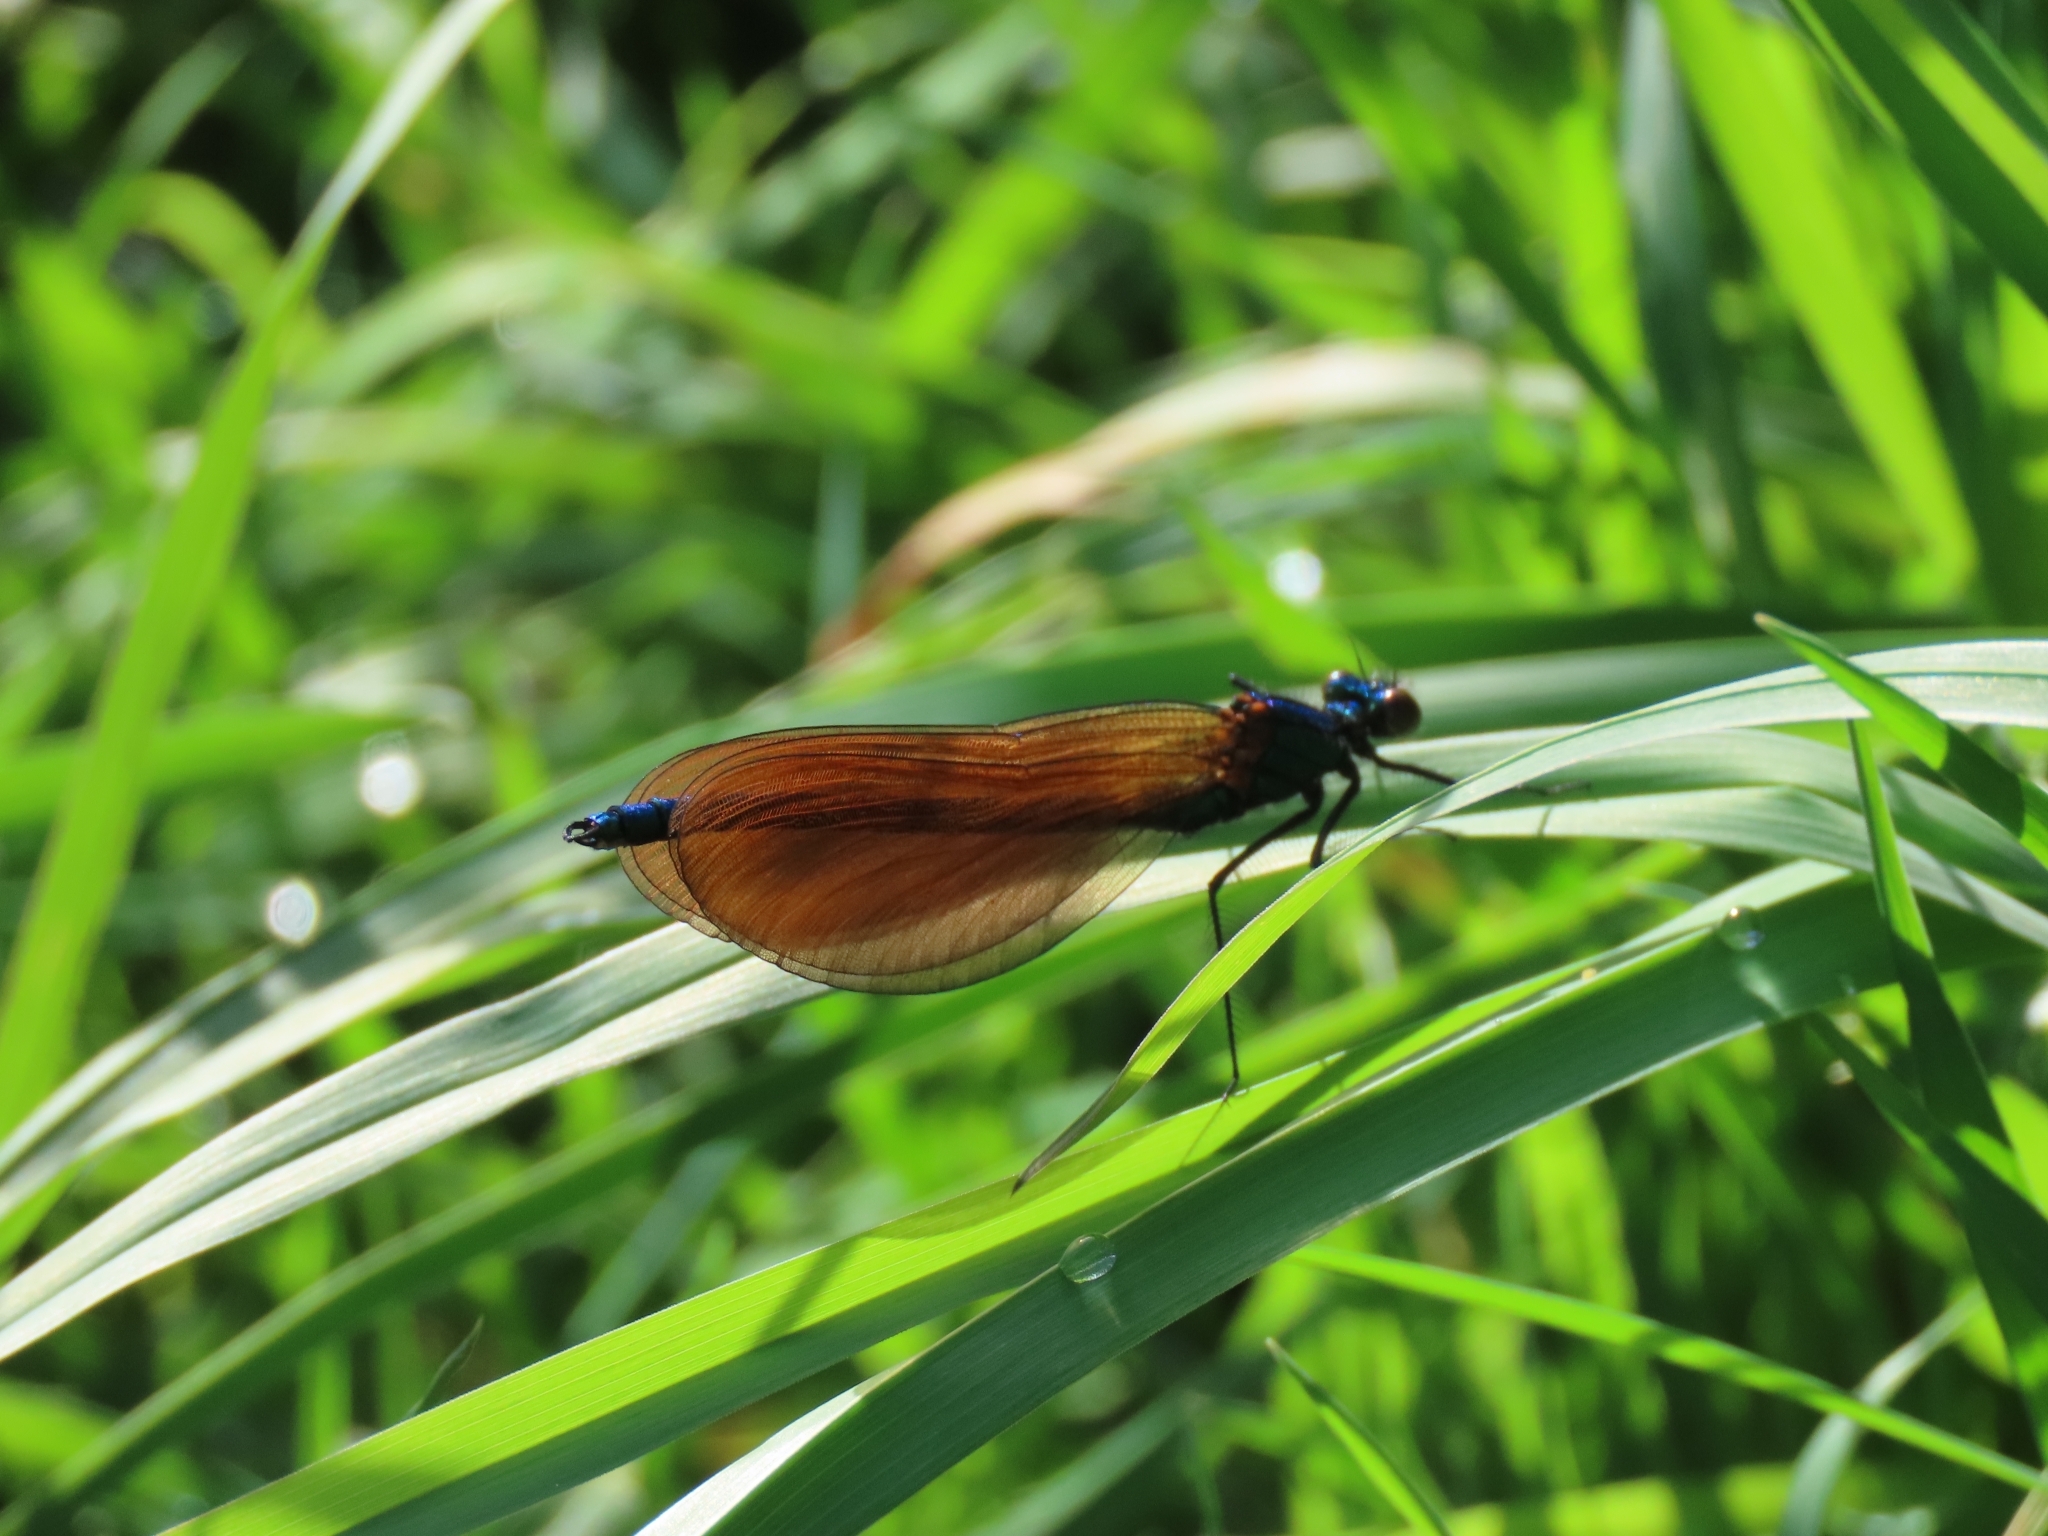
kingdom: Animalia
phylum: Arthropoda
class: Insecta
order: Odonata
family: Calopterygidae
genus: Calopteryx
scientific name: Calopteryx virgo
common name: Beautiful demoiselle
